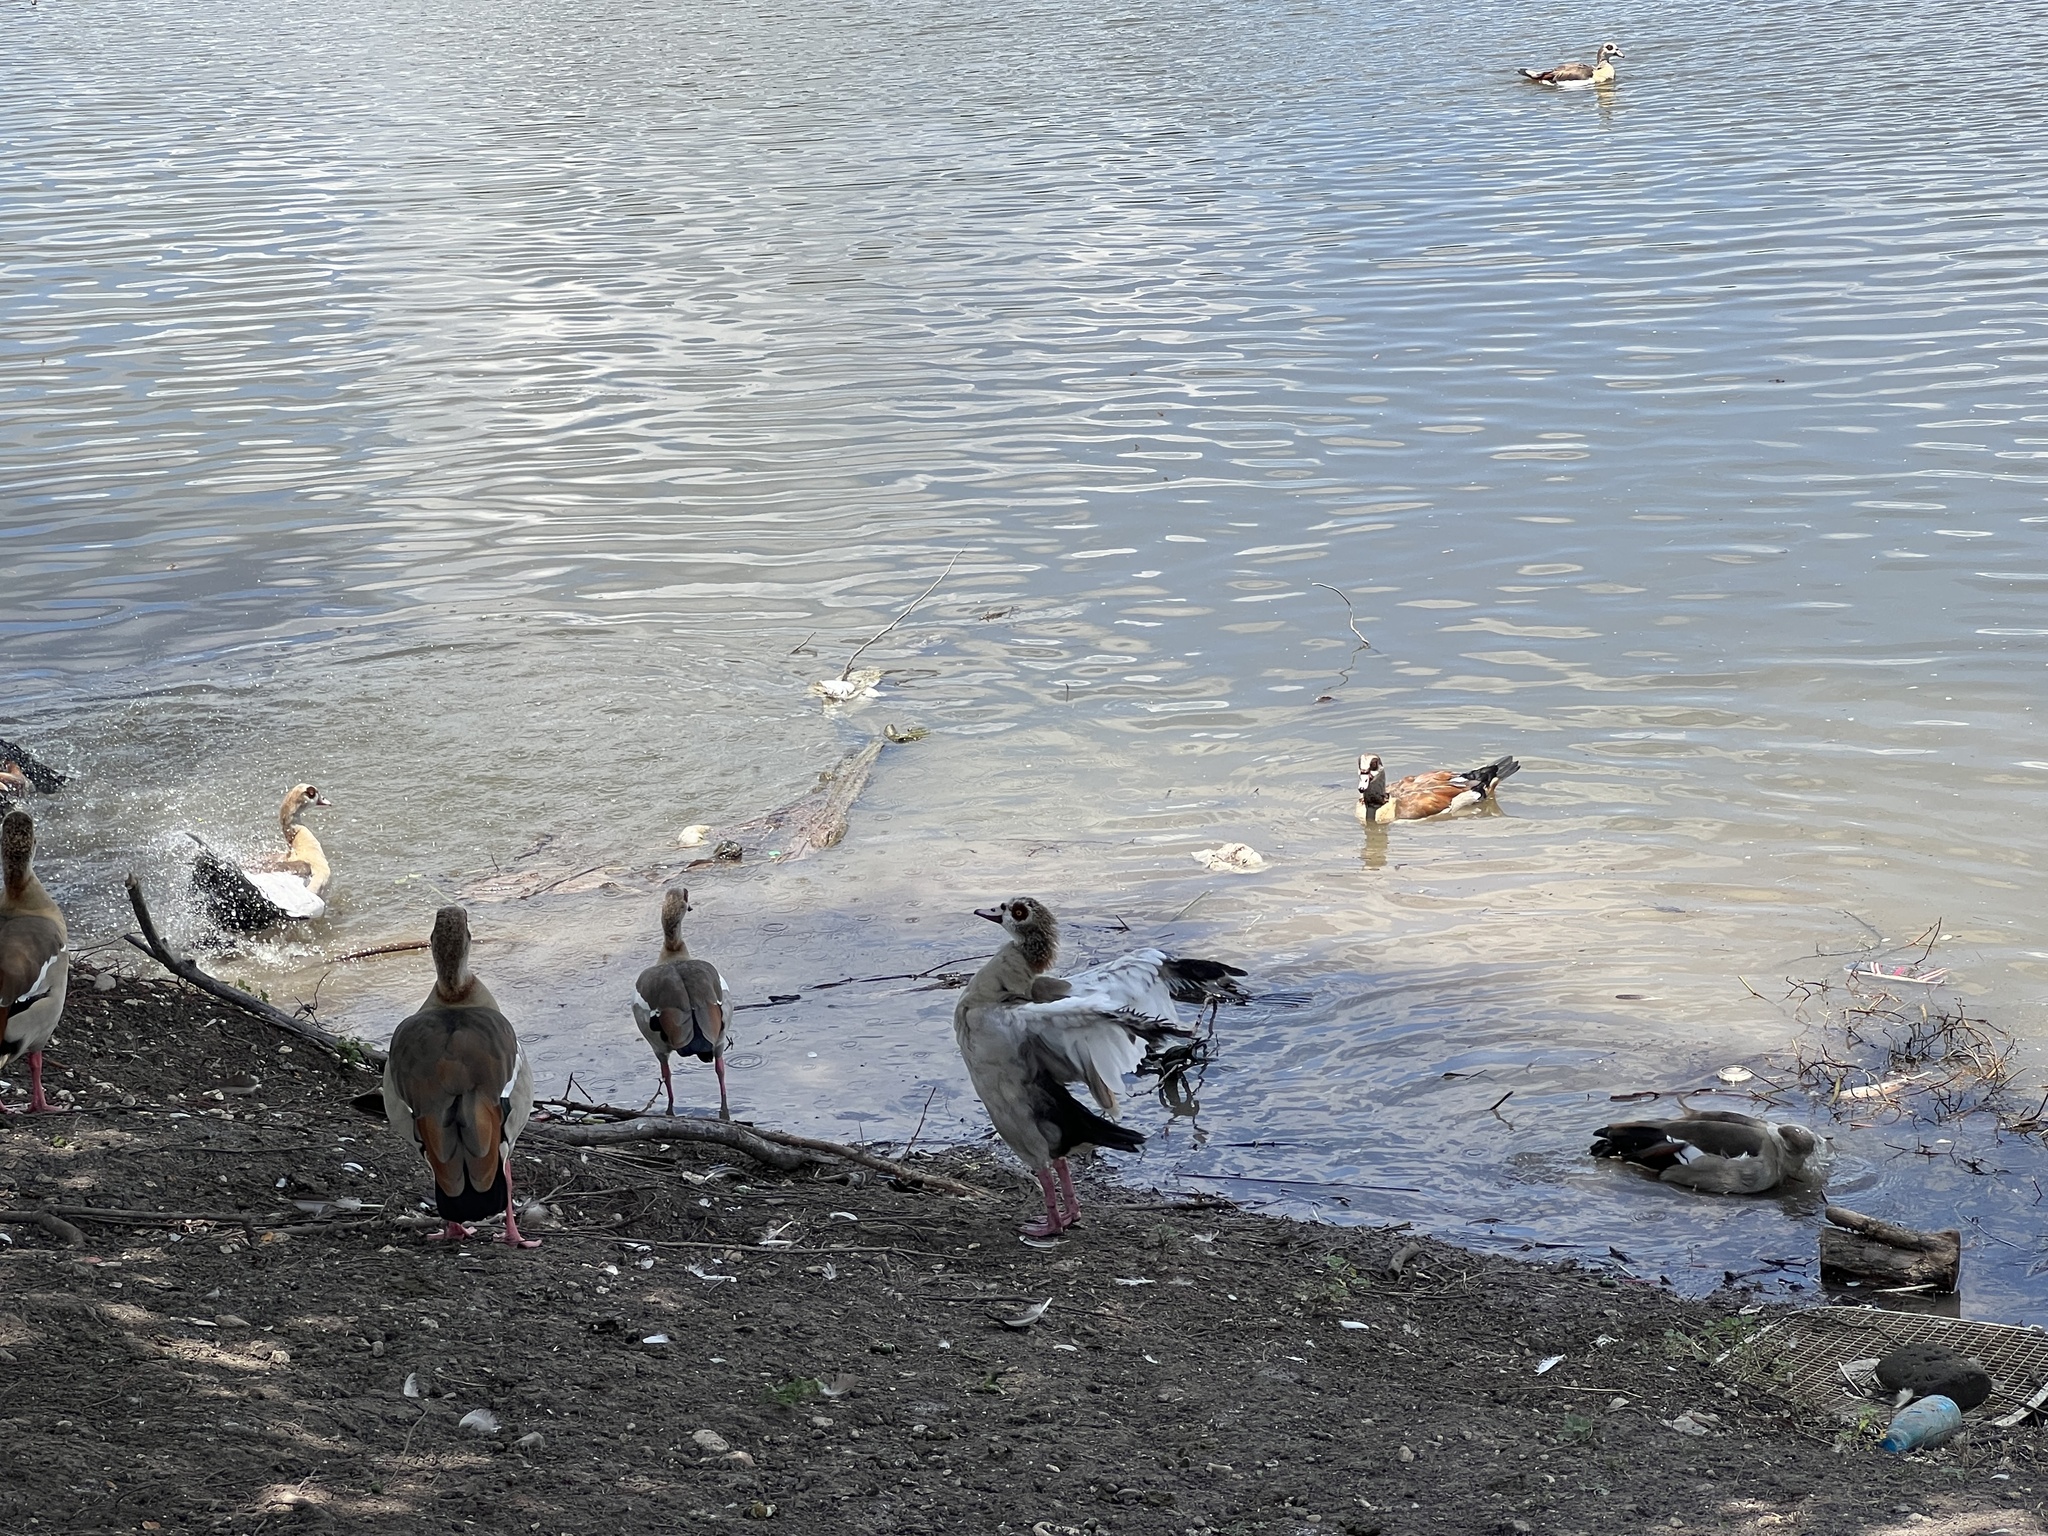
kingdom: Animalia
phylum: Chordata
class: Aves
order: Anseriformes
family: Anatidae
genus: Alopochen
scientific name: Alopochen aegyptiaca
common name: Egyptian goose
